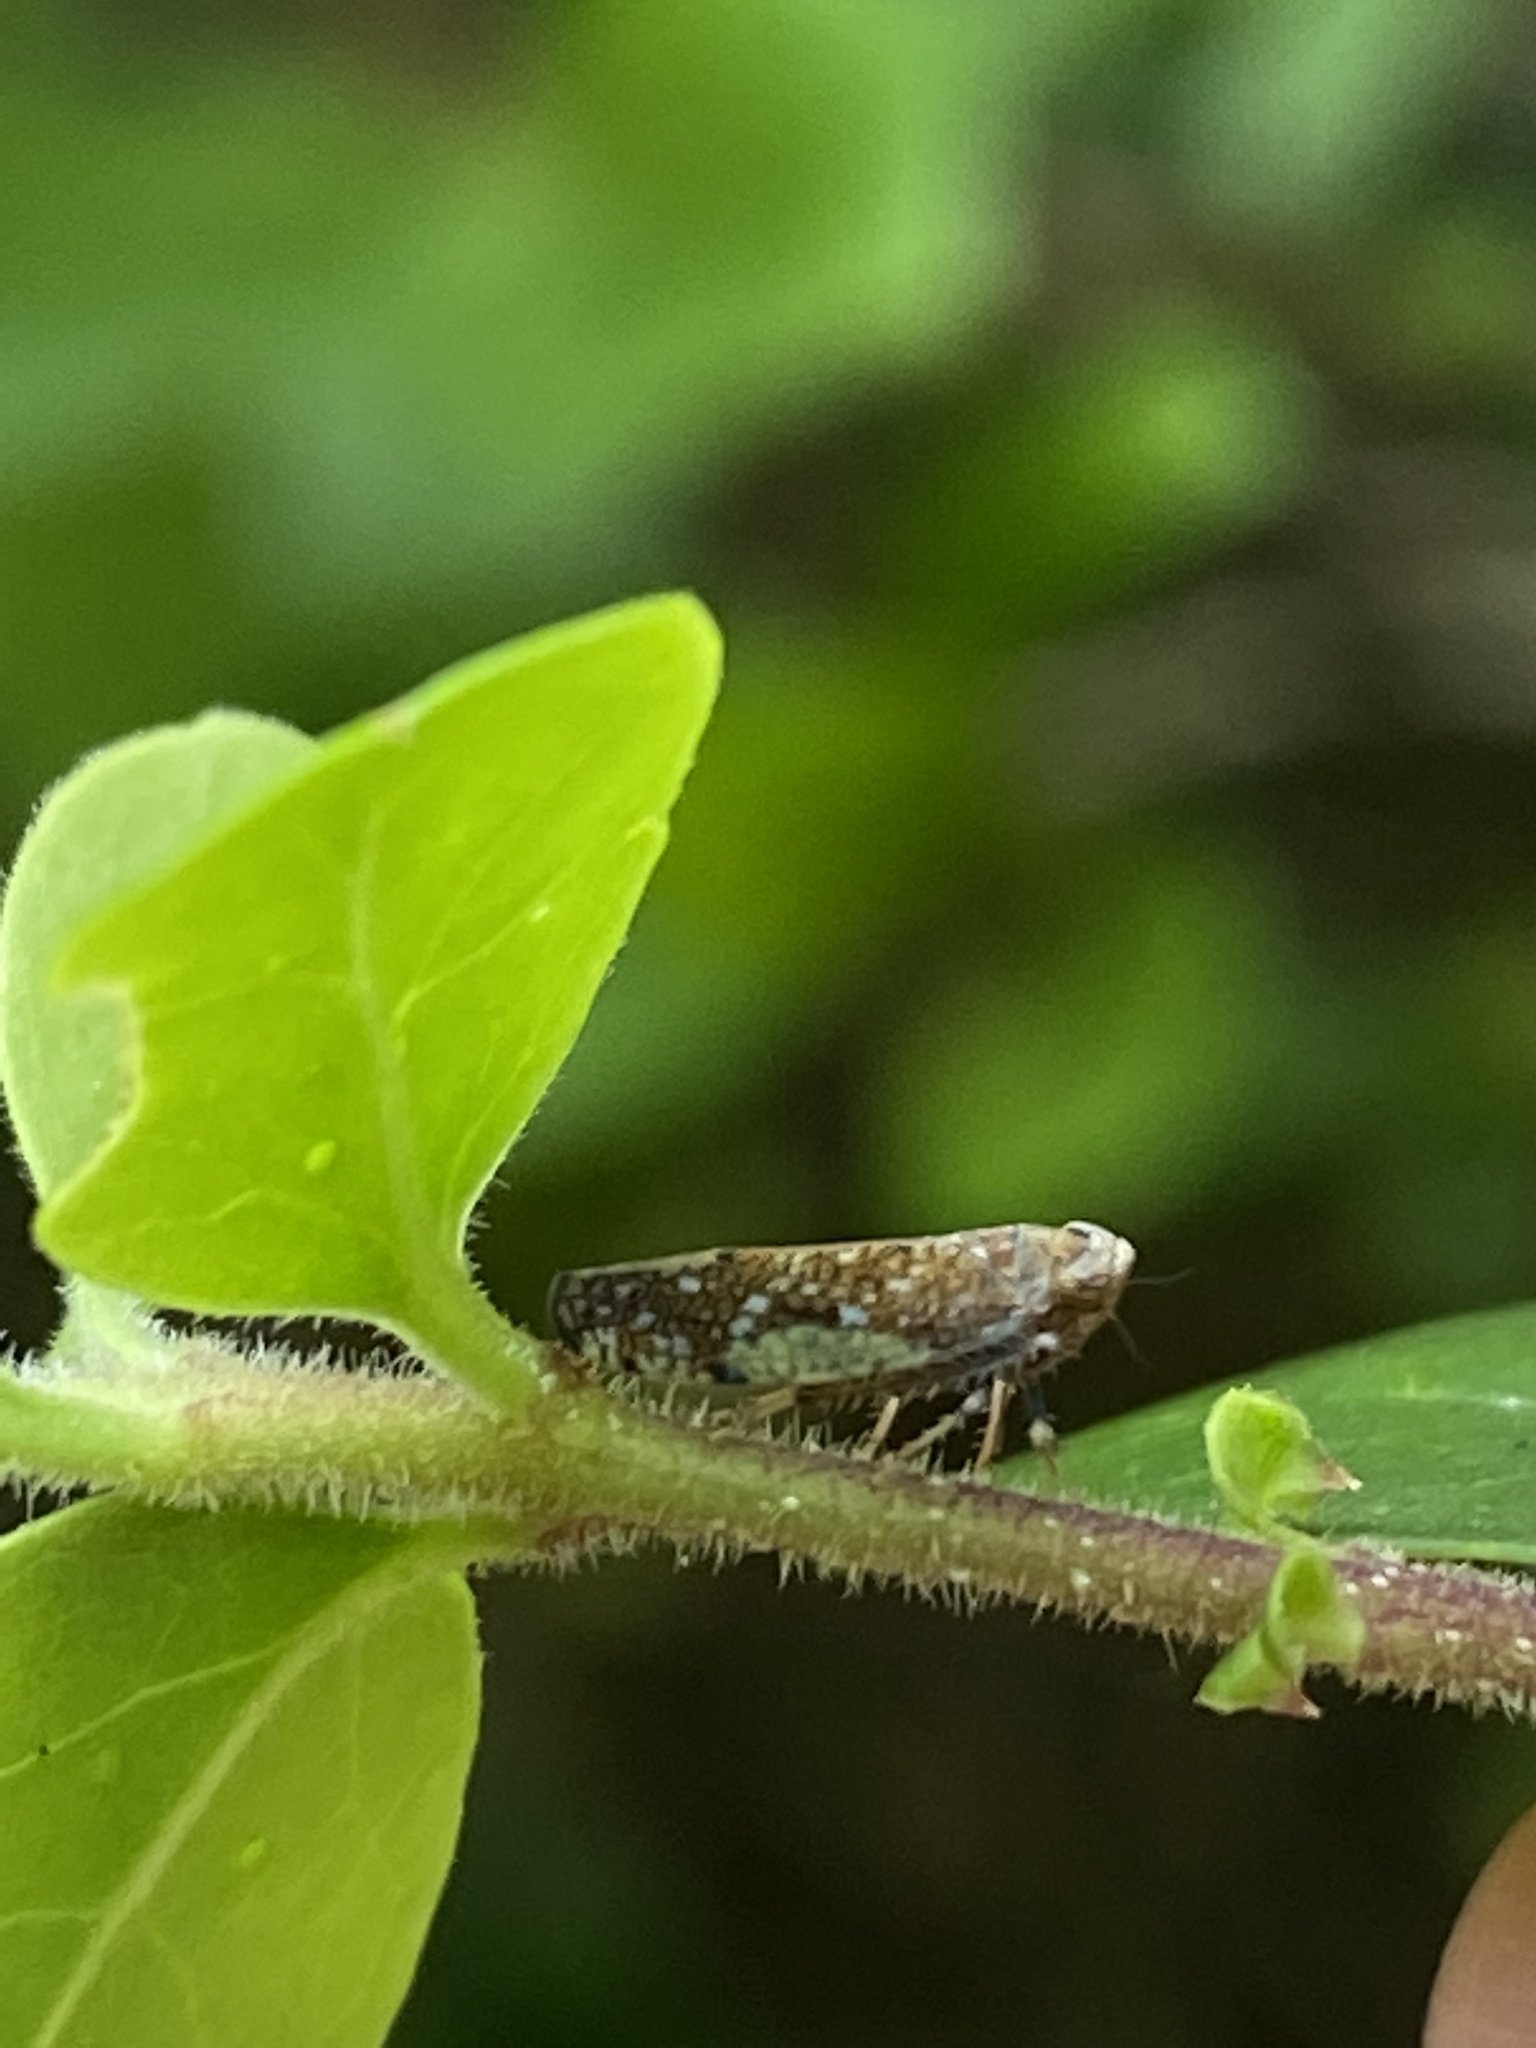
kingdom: Animalia
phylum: Arthropoda
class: Insecta
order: Hemiptera
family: Cicadellidae
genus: Orientus
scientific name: Orientus ishidae
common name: Japanese leafhopper
